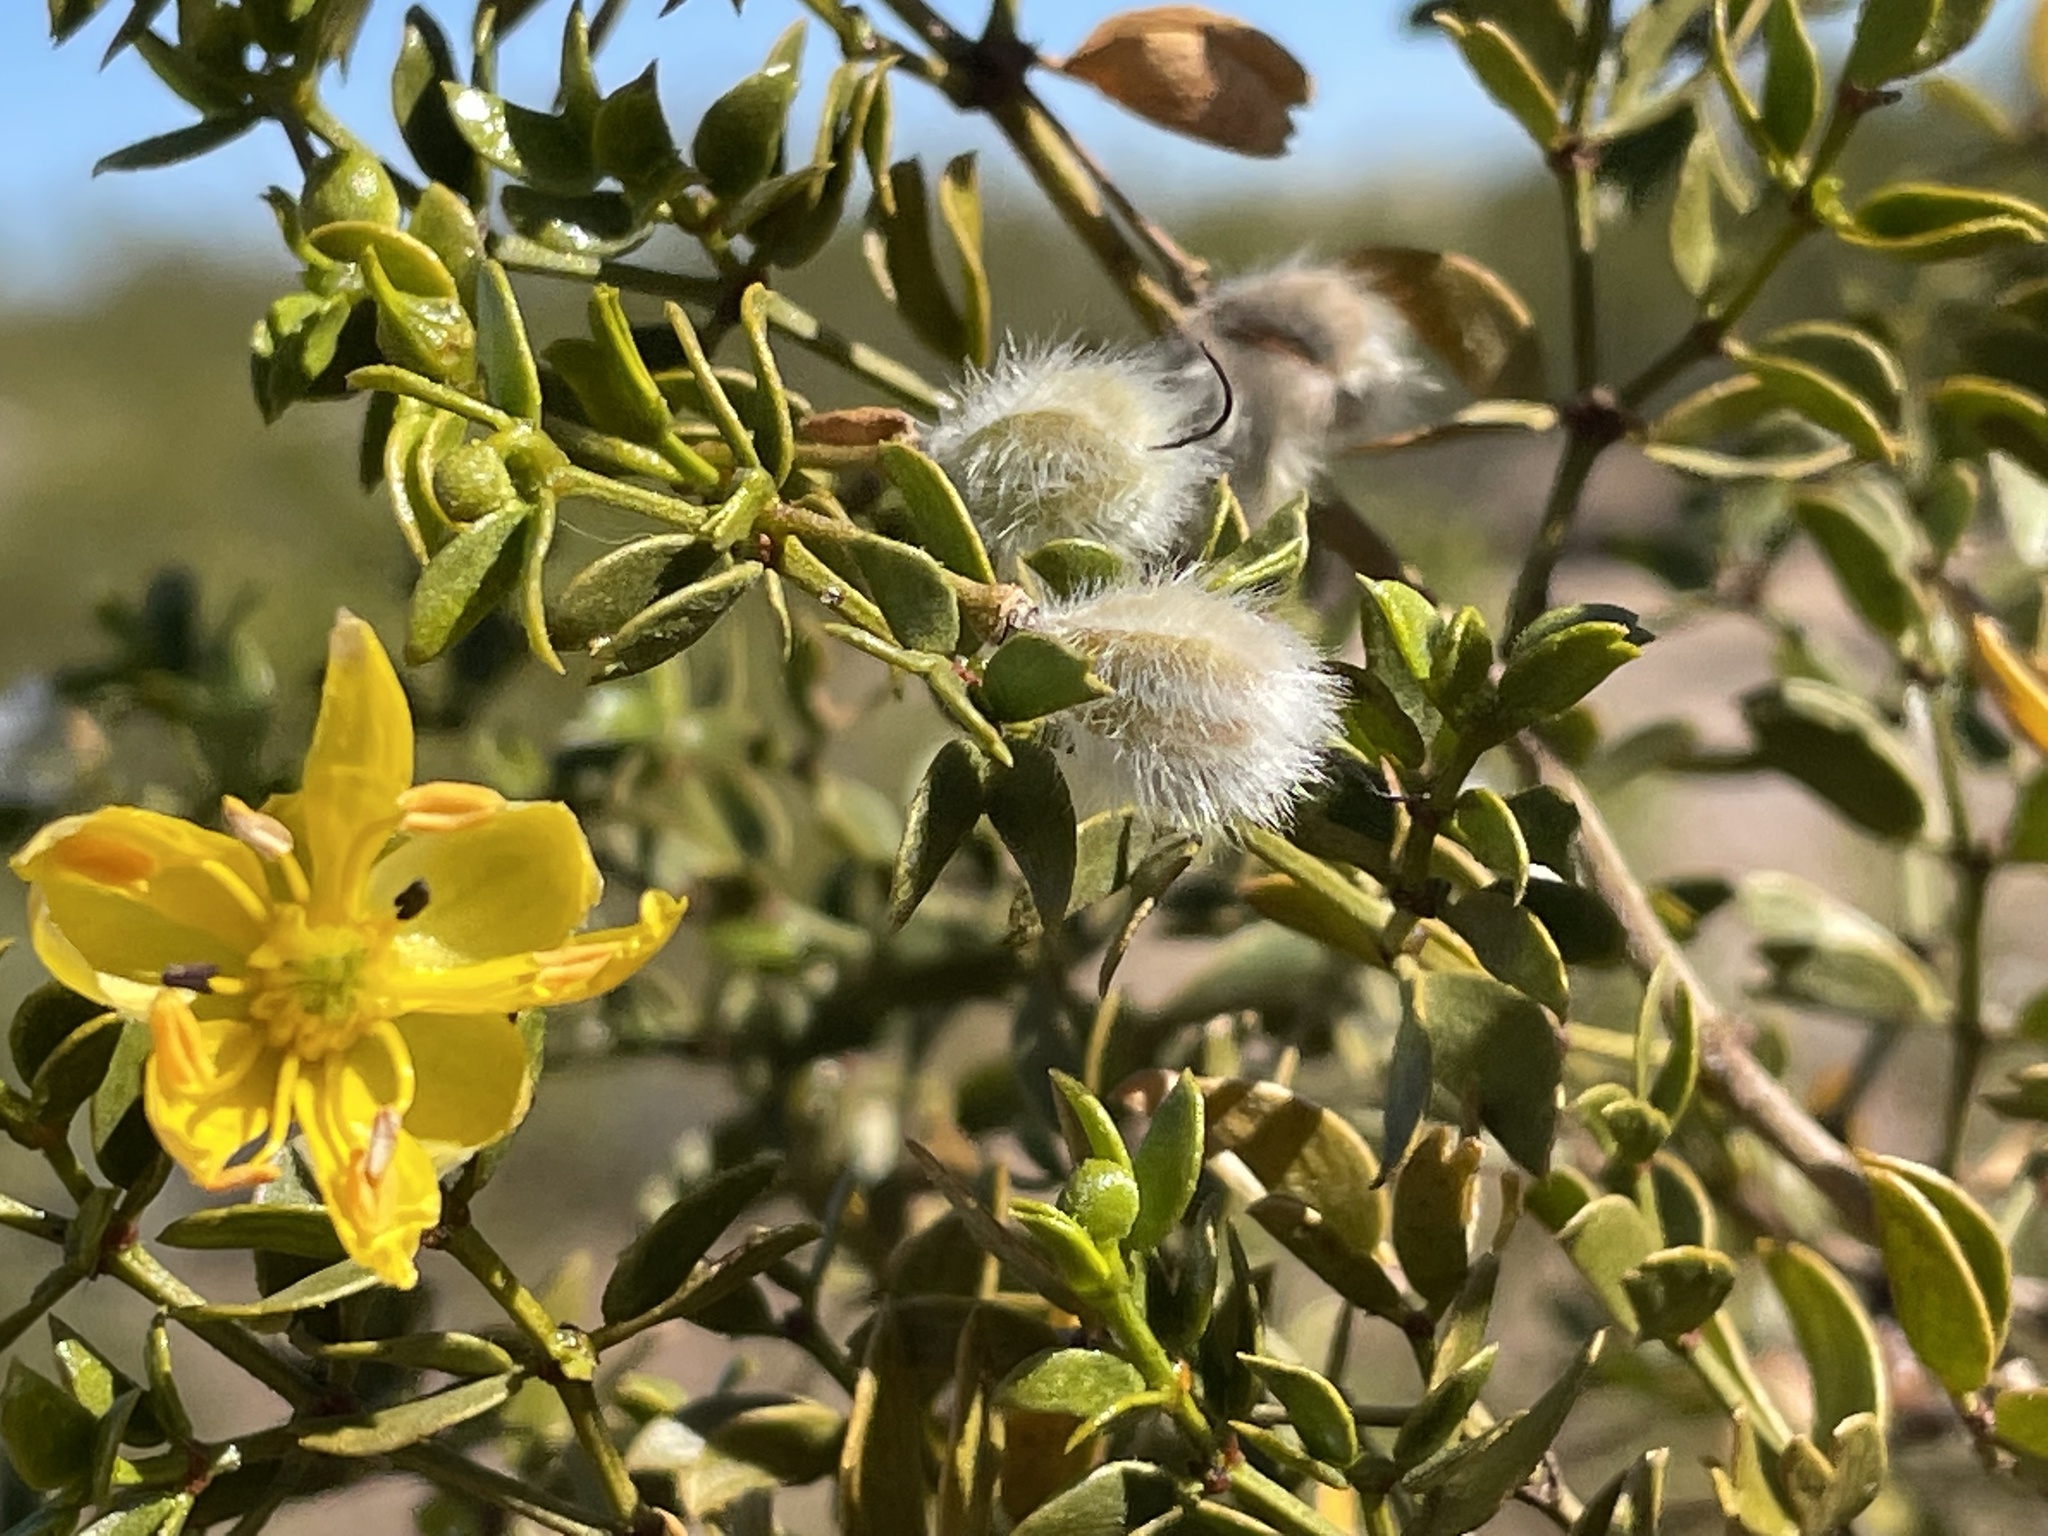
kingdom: Plantae
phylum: Tracheophyta
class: Magnoliopsida
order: Zygophyllales
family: Zygophyllaceae
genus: Larrea
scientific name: Larrea tridentata
